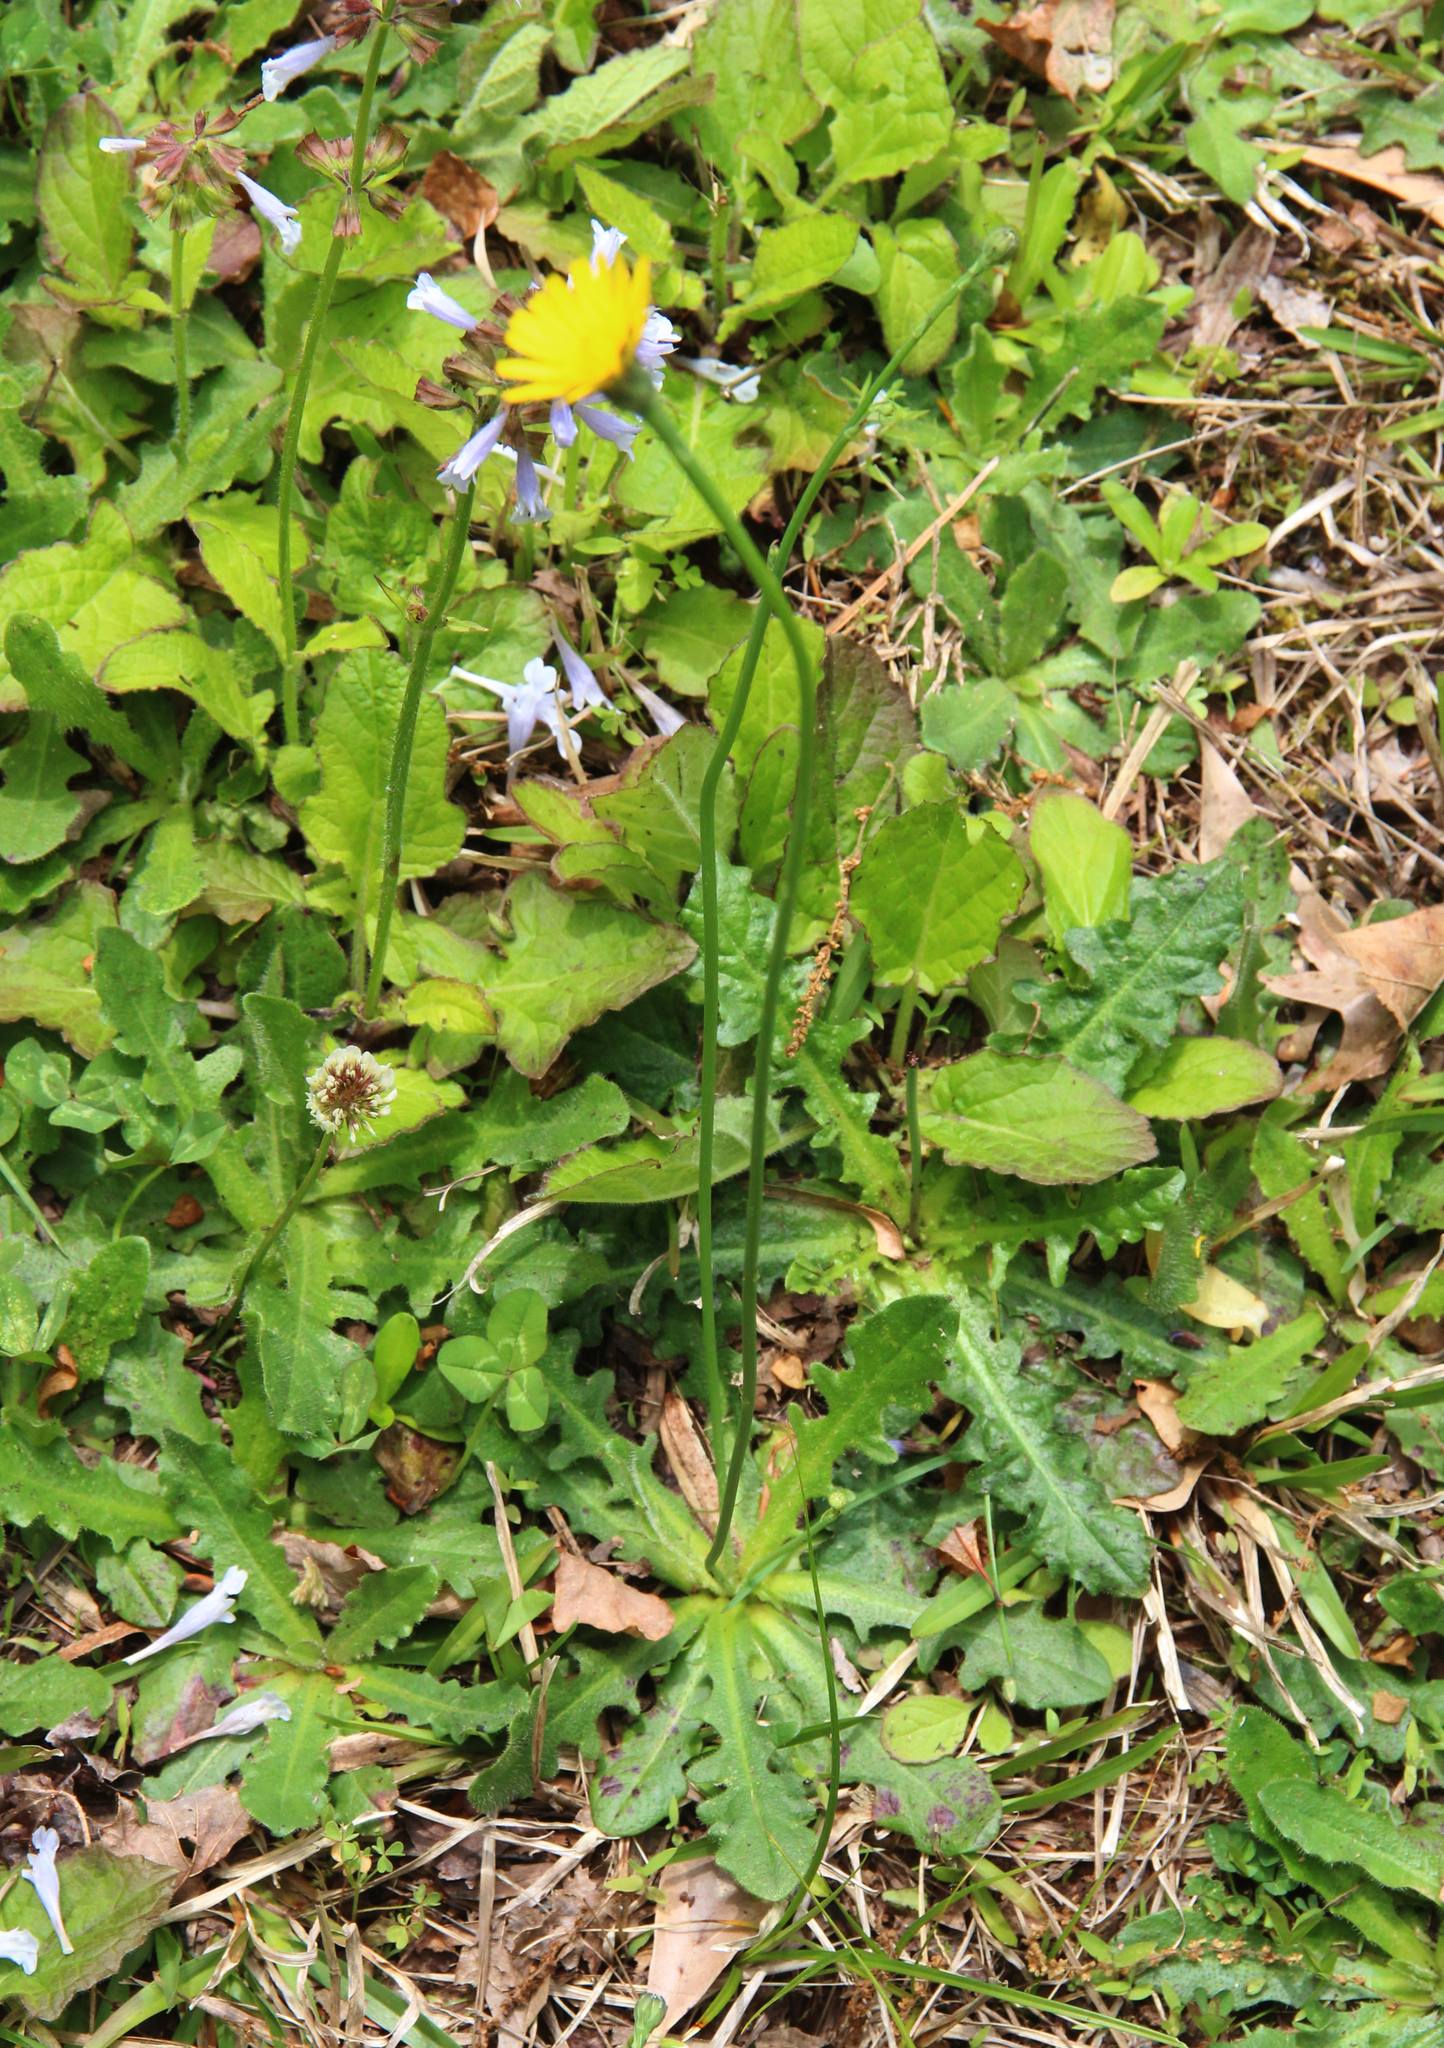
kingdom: Plantae
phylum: Tracheophyta
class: Magnoliopsida
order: Asterales
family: Asteraceae
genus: Hypochaeris
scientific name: Hypochaeris radicata
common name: Flatweed
